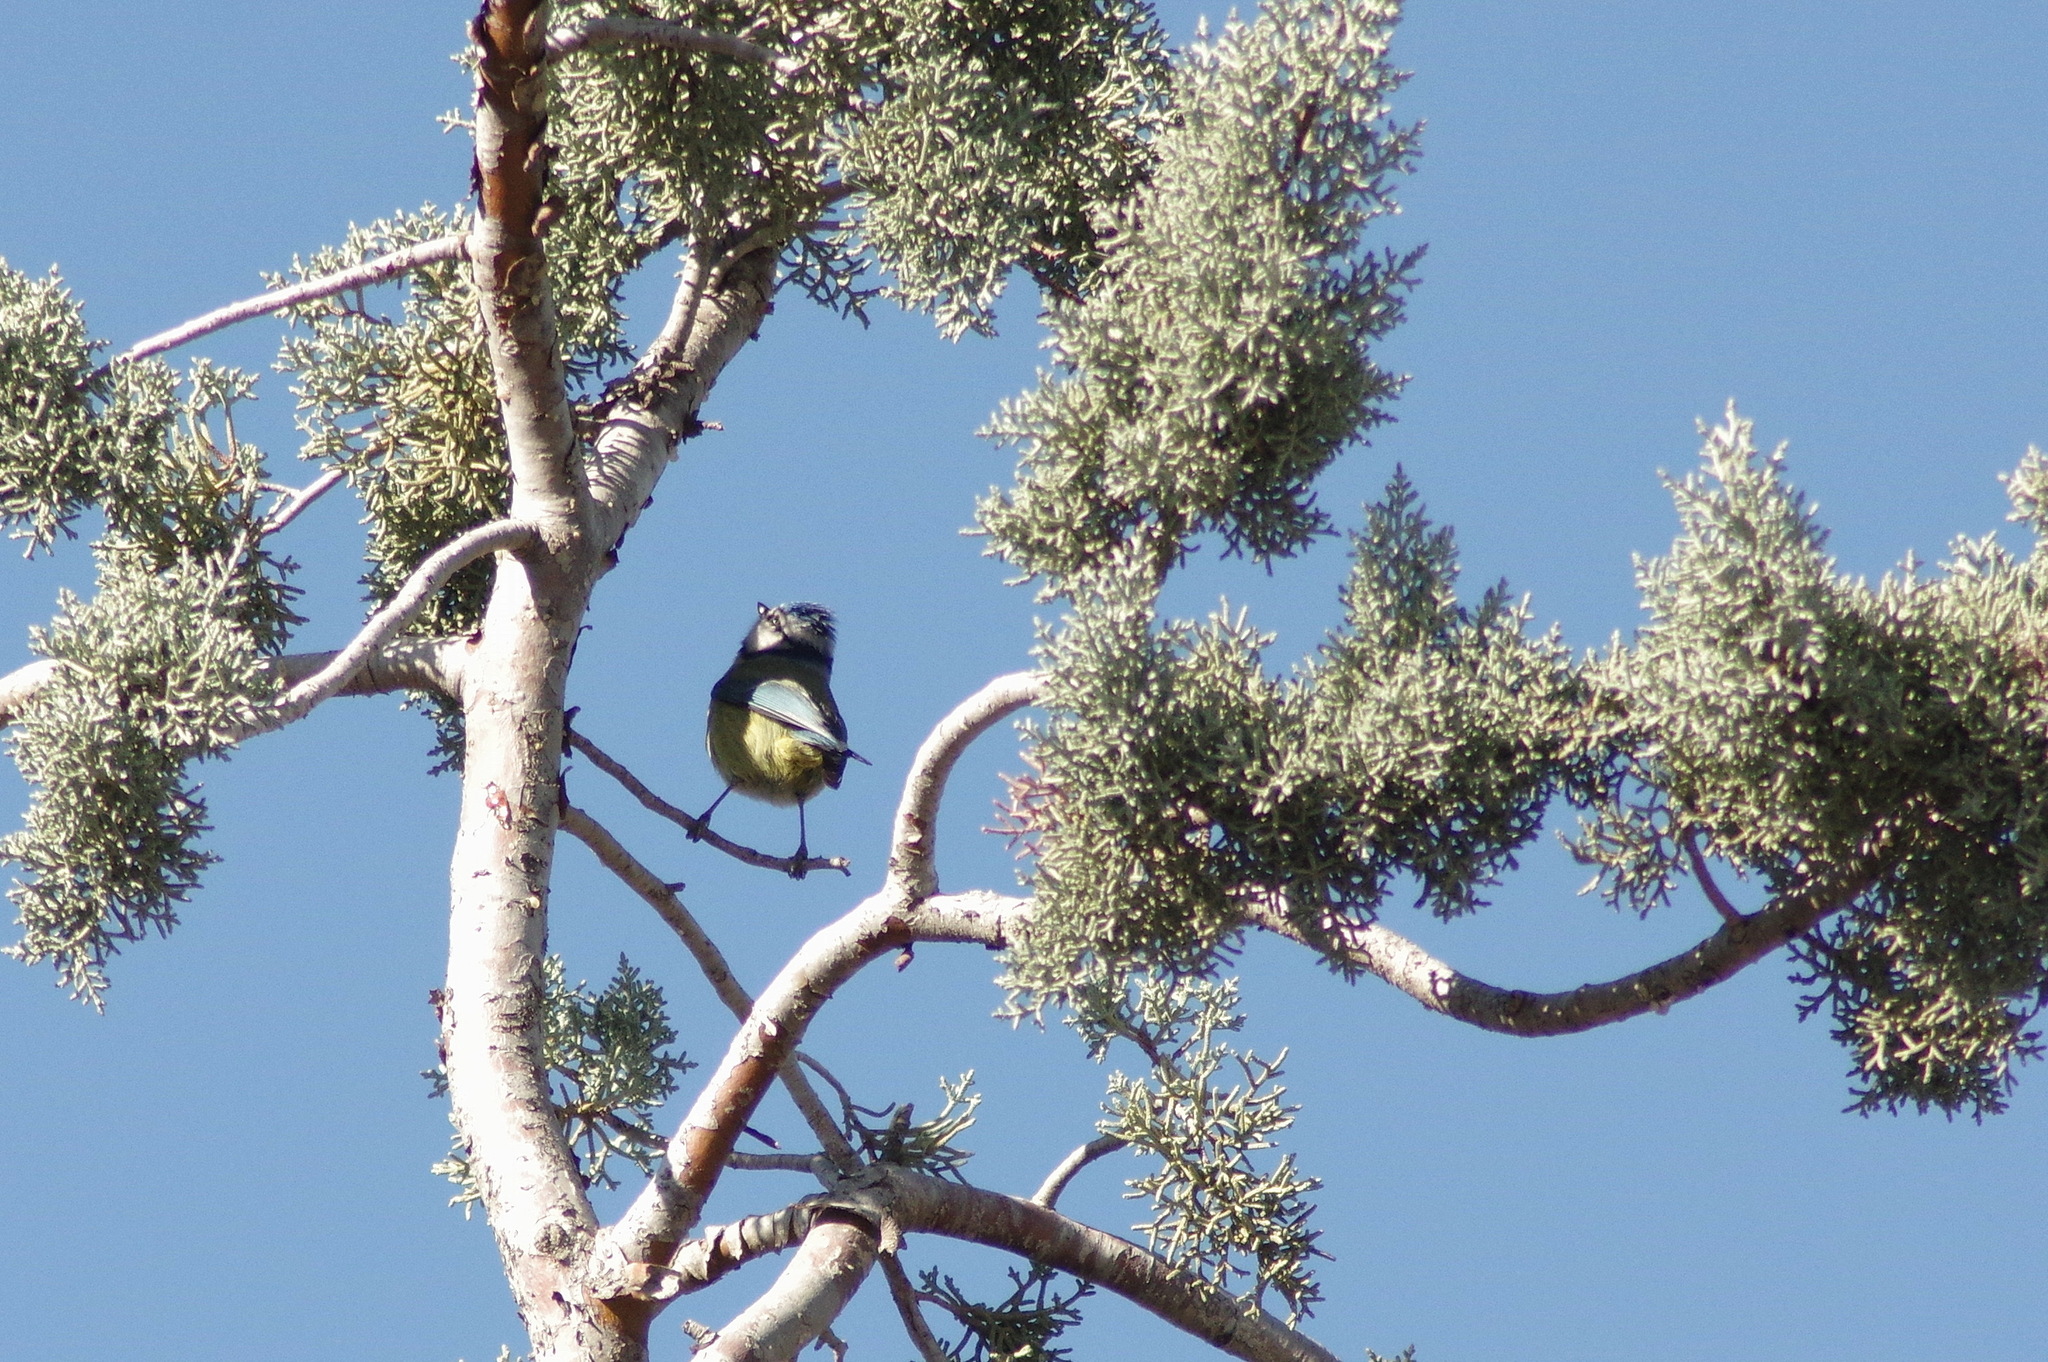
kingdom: Animalia
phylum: Chordata
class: Aves
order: Passeriformes
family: Paridae
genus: Cyanistes
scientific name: Cyanistes caeruleus
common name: Eurasian blue tit
